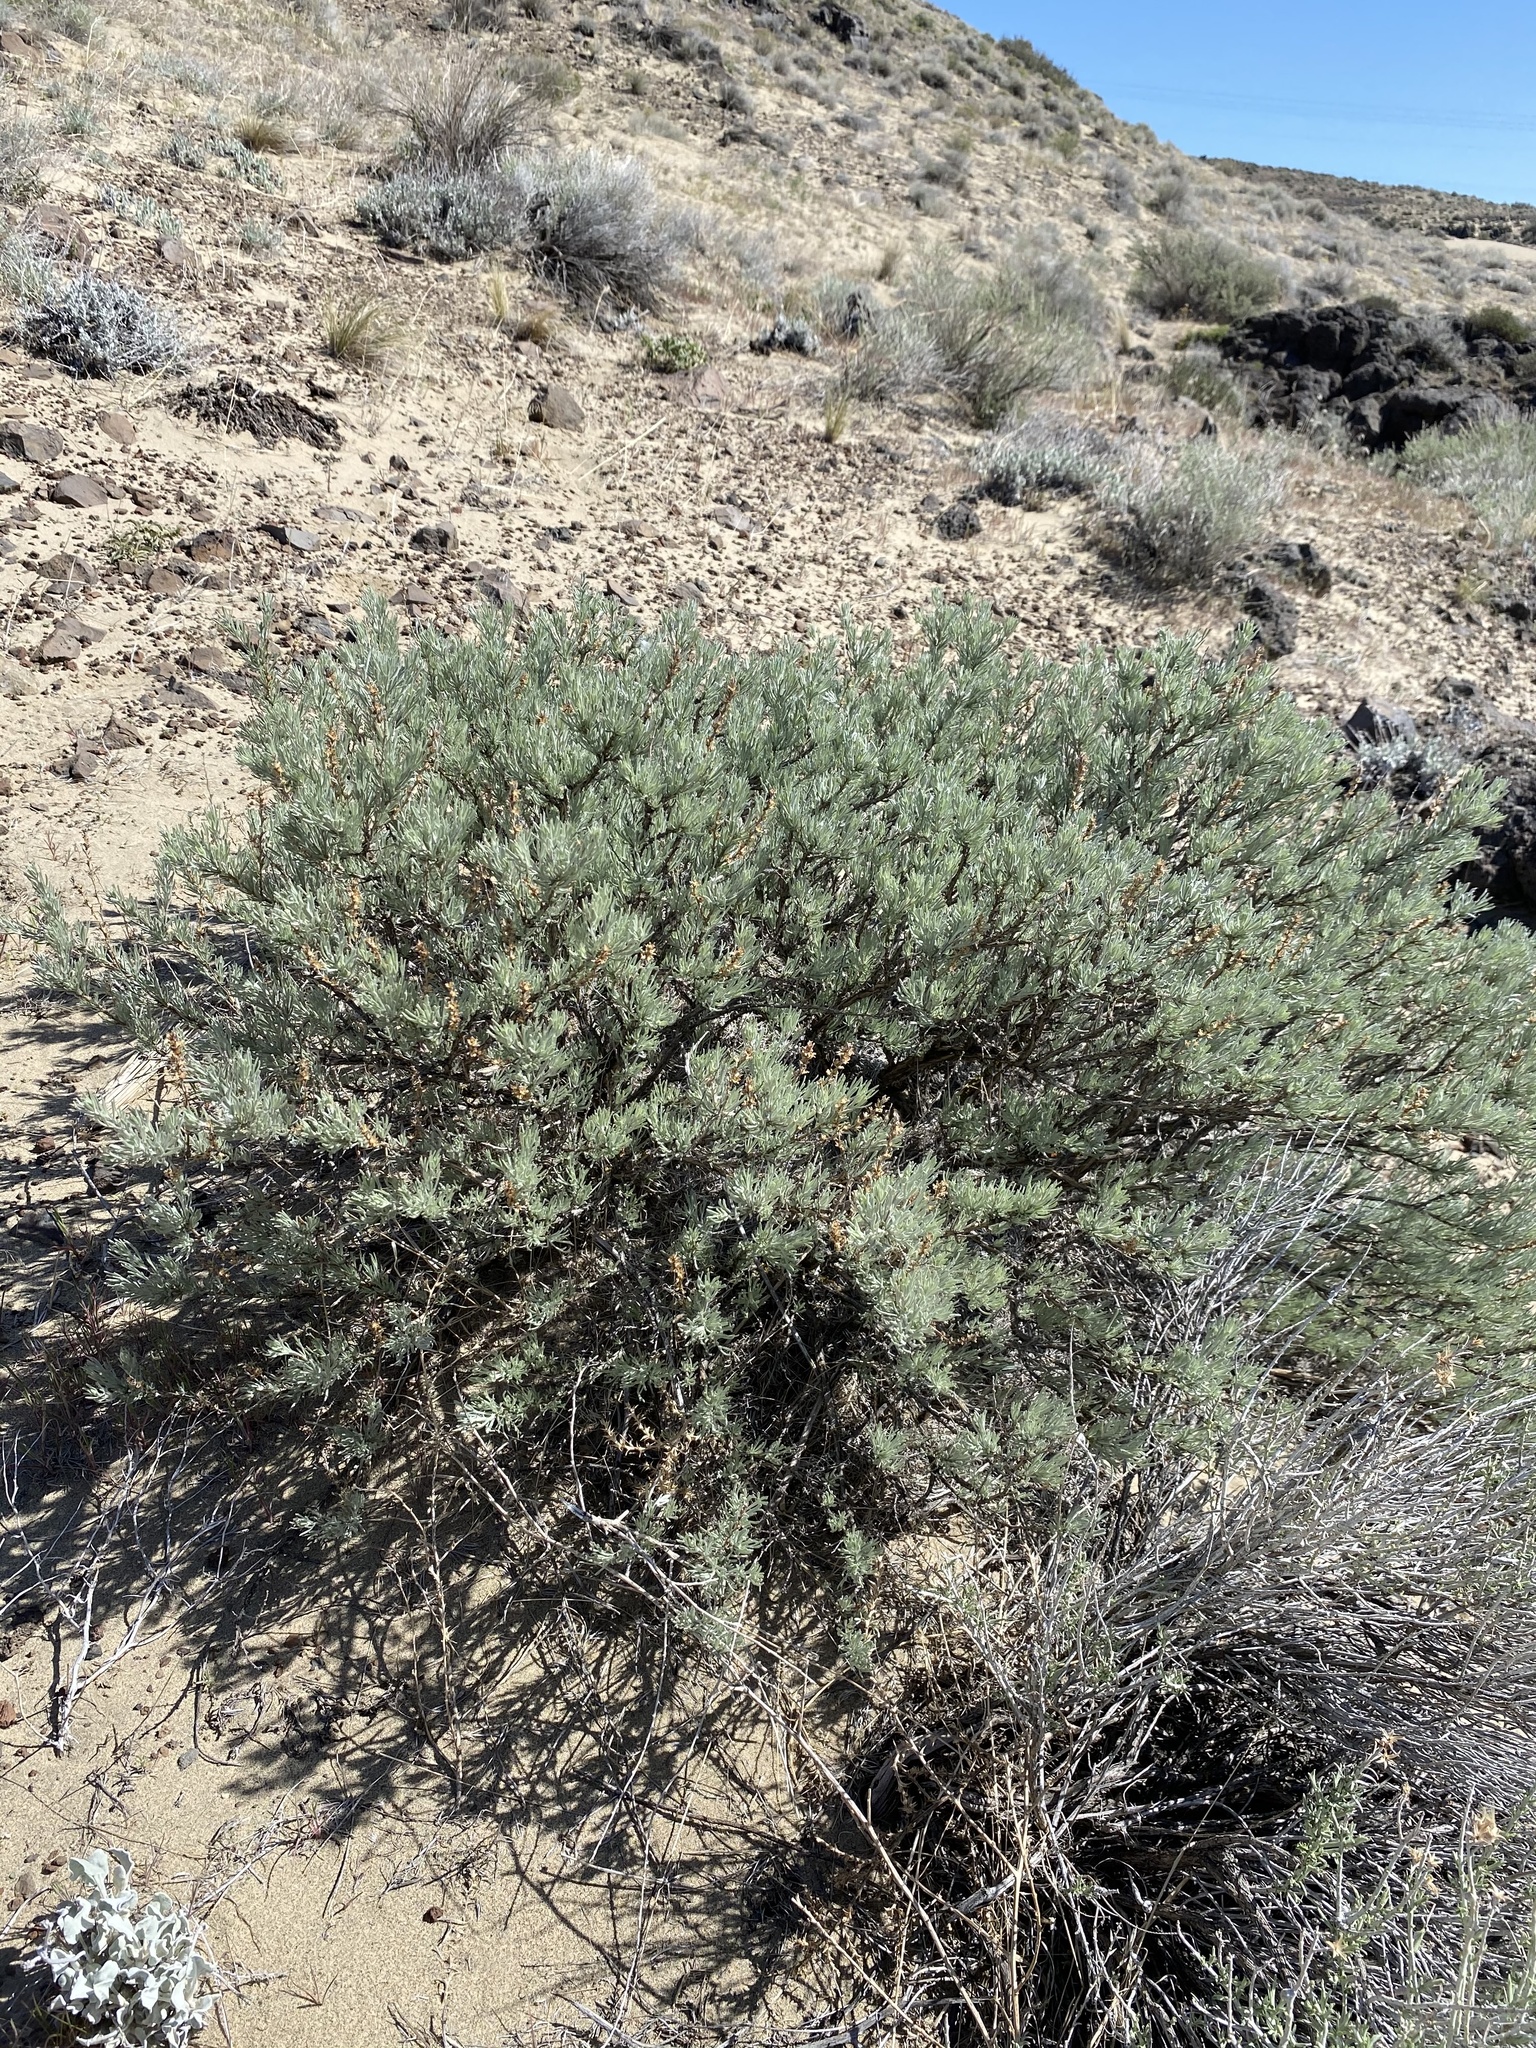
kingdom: Plantae
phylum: Tracheophyta
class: Magnoliopsida
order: Asterales
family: Asteraceae
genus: Artemisia
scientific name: Artemisia rigida
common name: Scabland sagebrush
